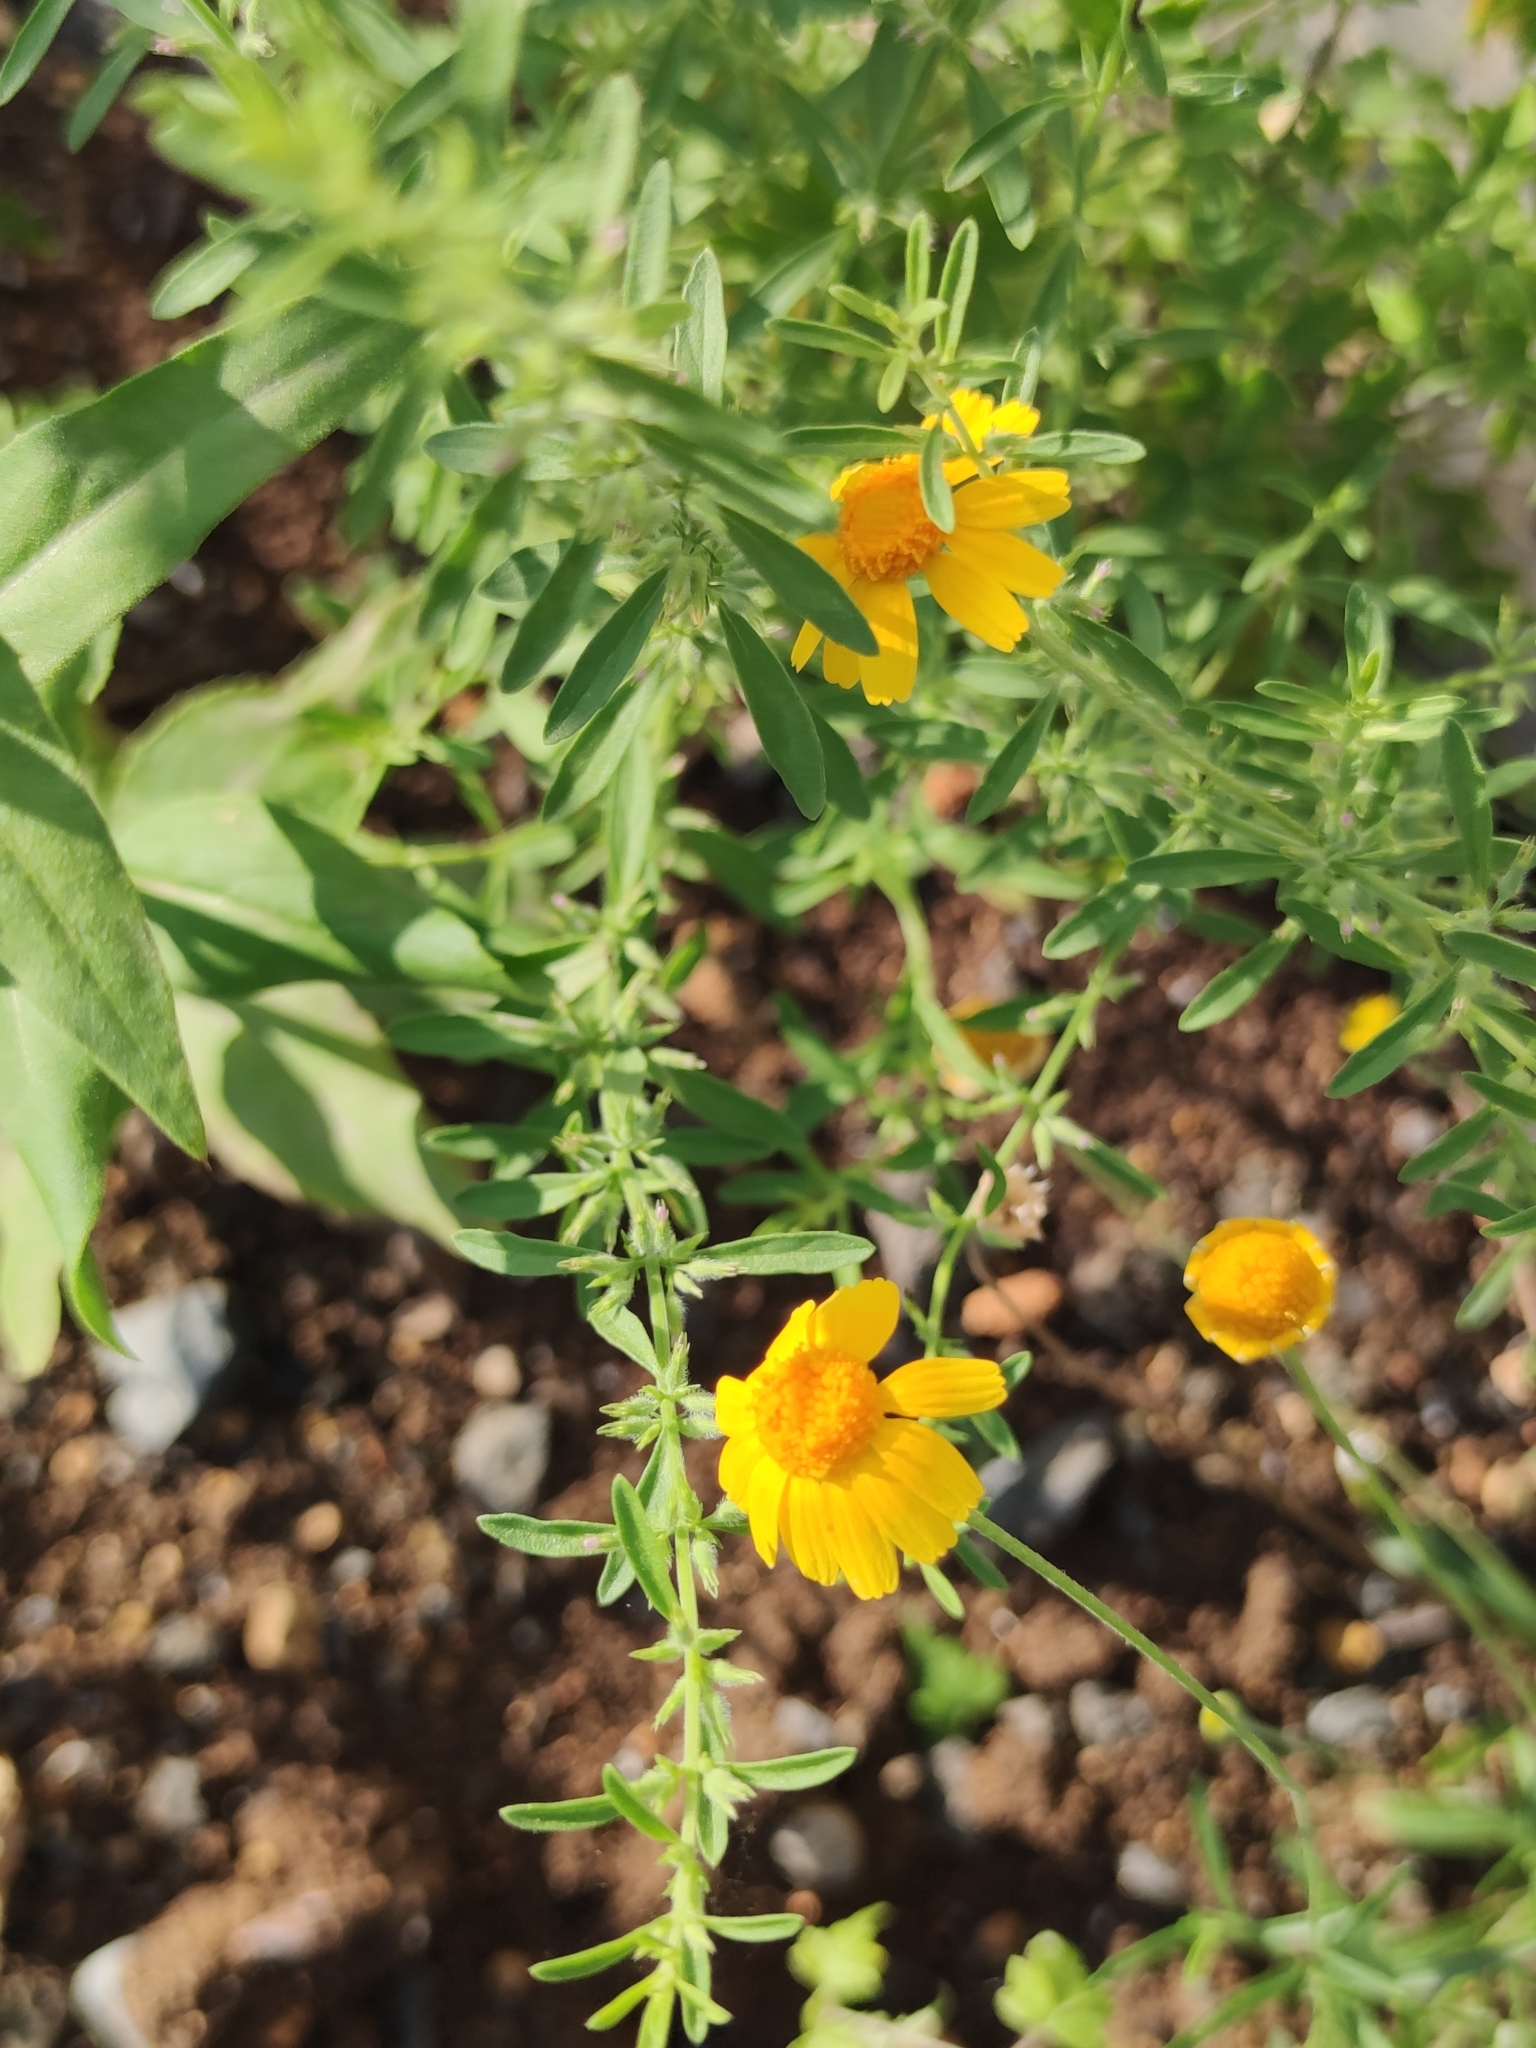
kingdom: Plantae
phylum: Tracheophyta
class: Magnoliopsida
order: Asterales
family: Asteraceae
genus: Tetraneuris
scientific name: Tetraneuris linearifolia
